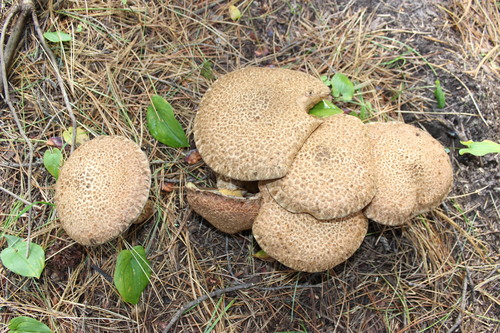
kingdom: Fungi
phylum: Basidiomycota
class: Agaricomycetes
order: Boletales
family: Suillaceae
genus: Suillus
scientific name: Suillus spraguei
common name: Painted suillus
